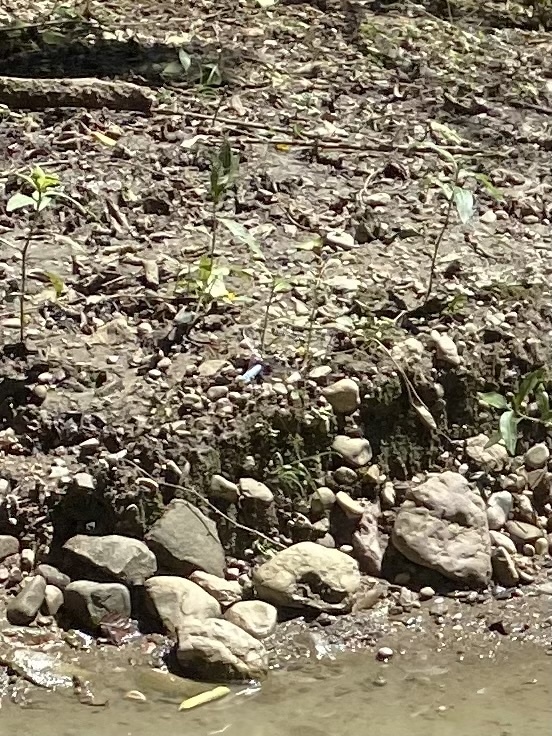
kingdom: Animalia
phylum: Arthropoda
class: Insecta
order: Odonata
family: Libellulidae
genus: Libellula
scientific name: Libellula depressa
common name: Broad-bodied chaser
